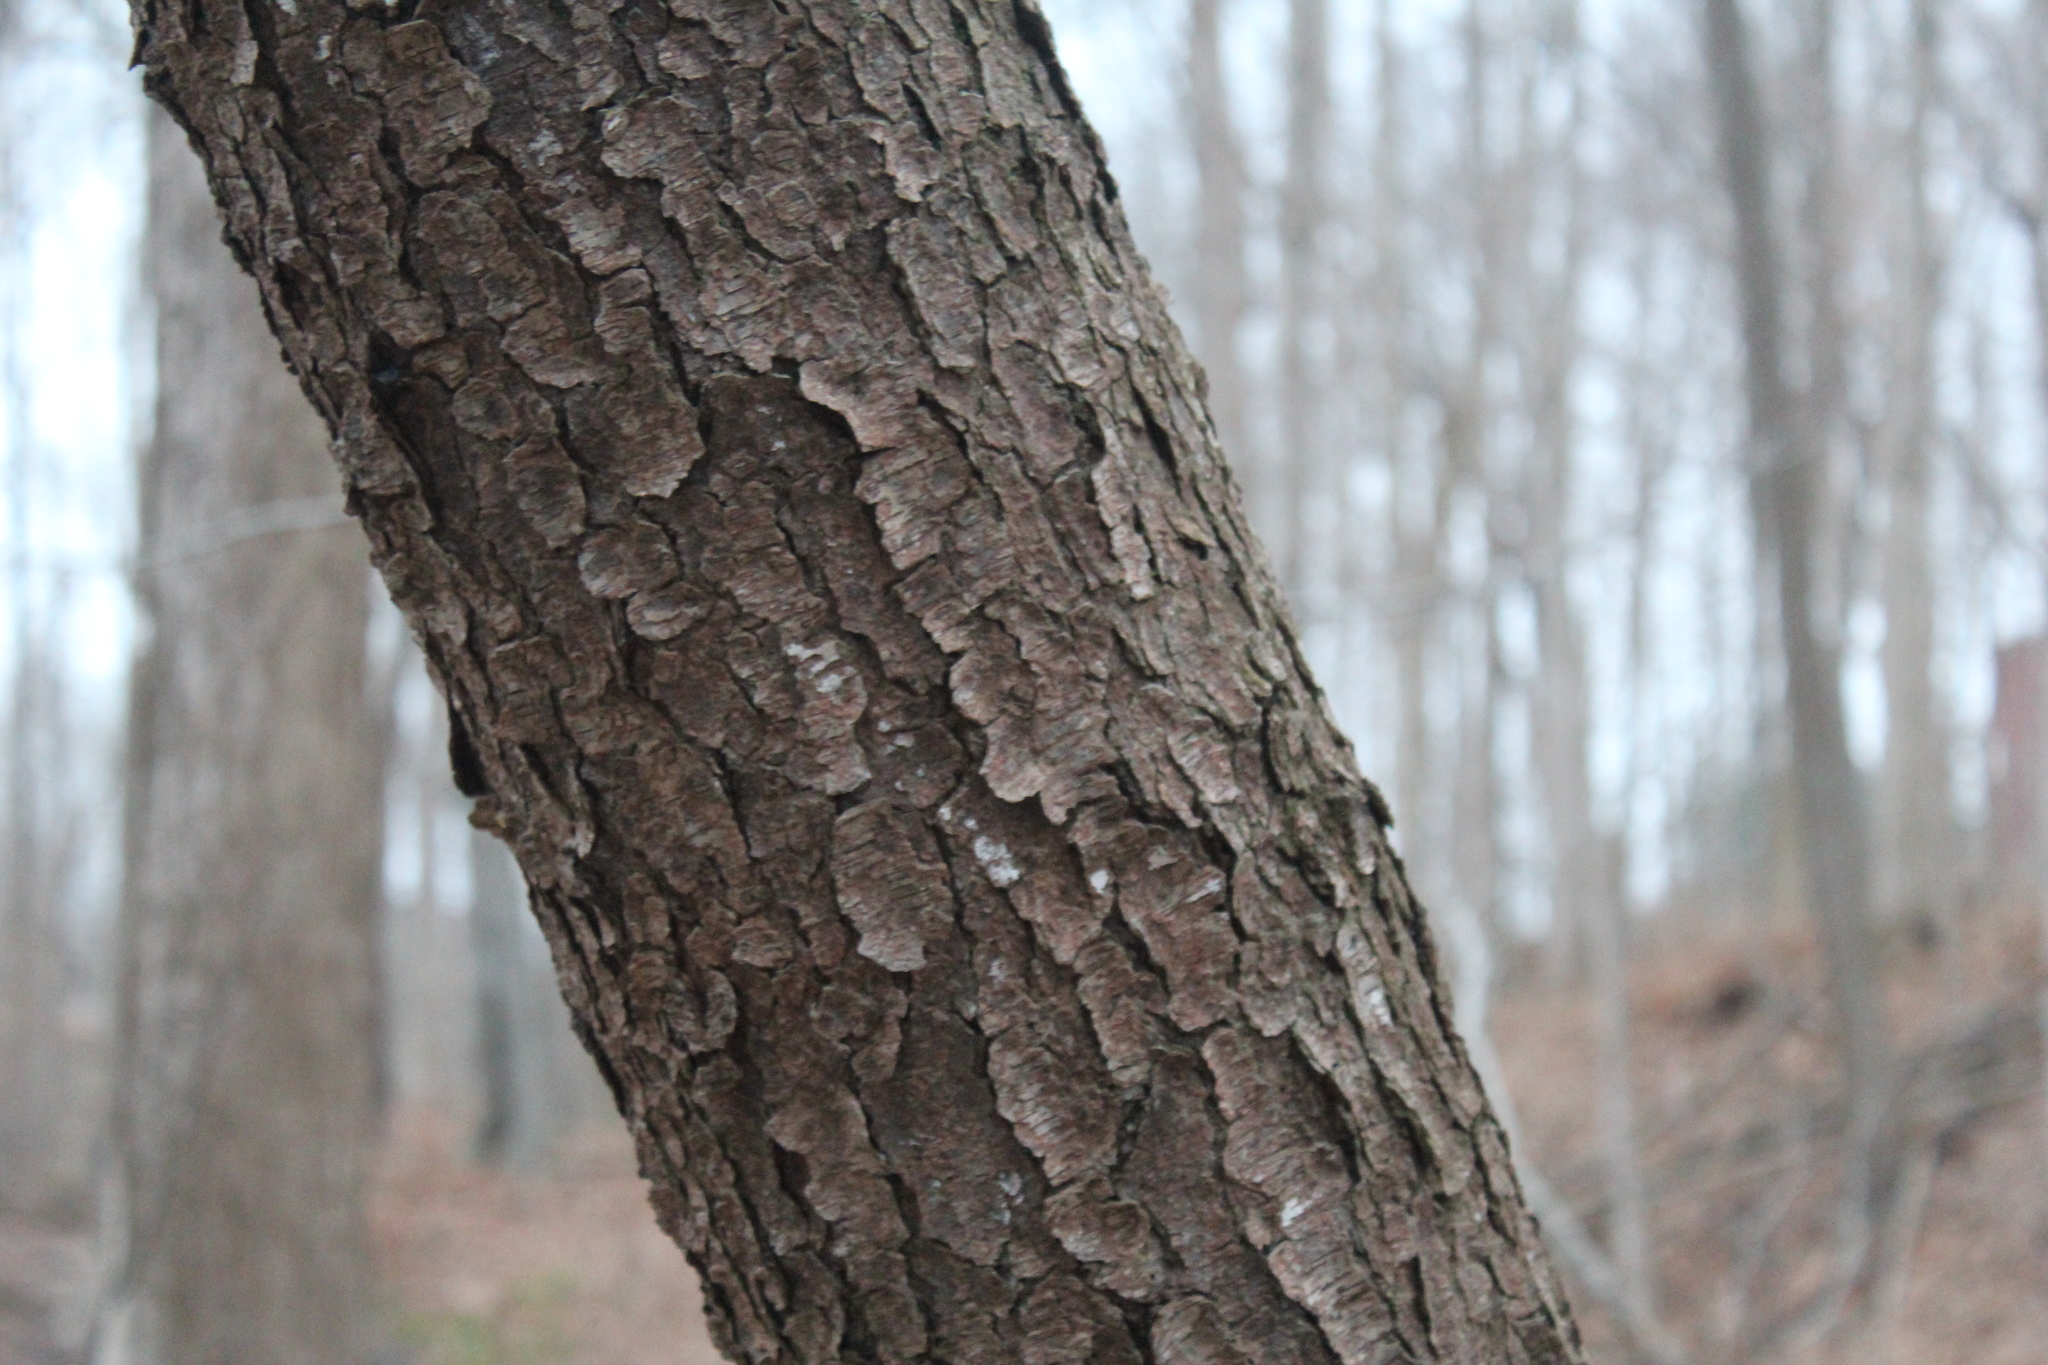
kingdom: Plantae
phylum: Tracheophyta
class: Magnoliopsida
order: Rosales
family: Rosaceae
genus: Prunus
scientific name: Prunus serotina
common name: Black cherry
